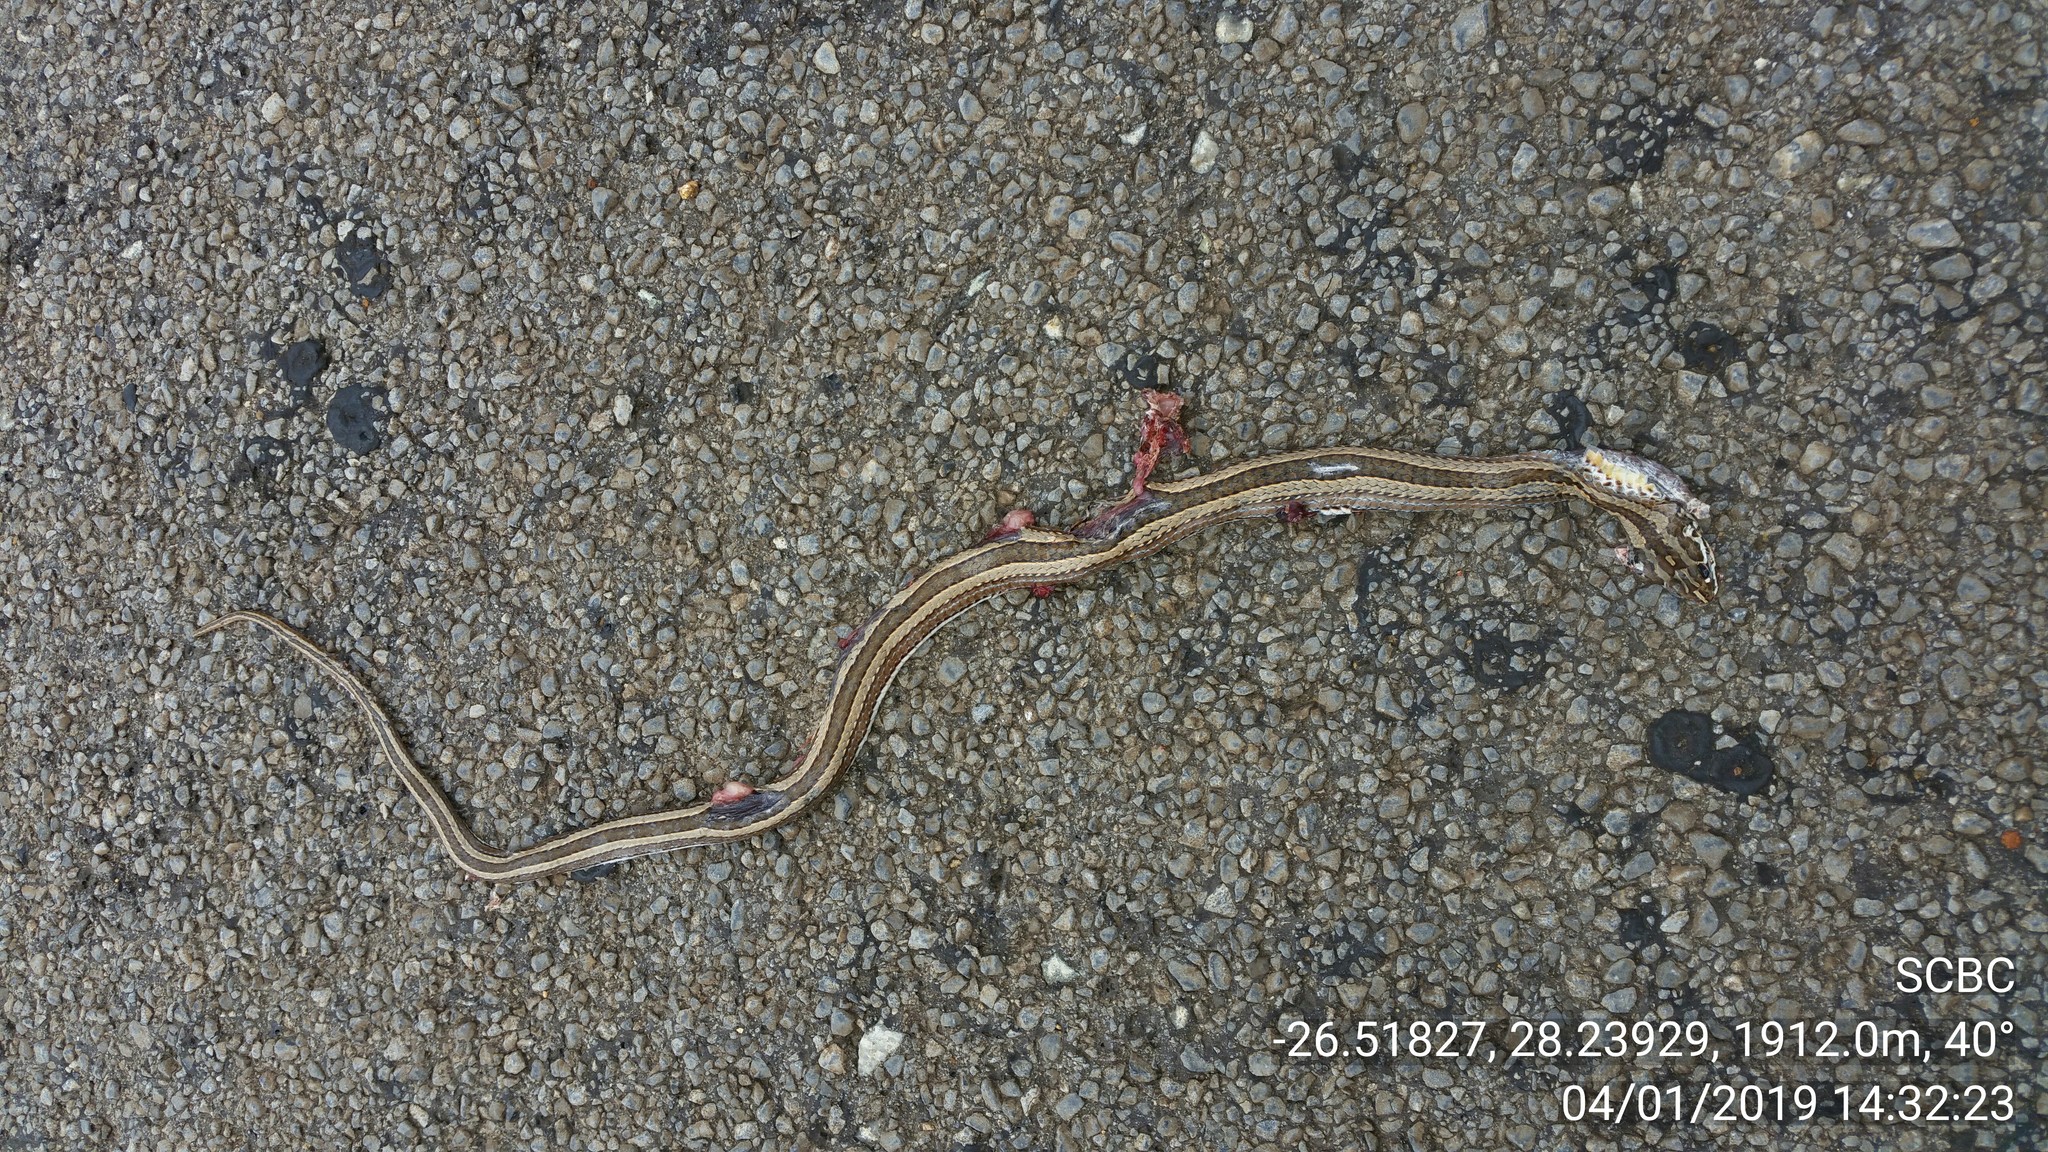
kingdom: Animalia
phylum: Chordata
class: Squamata
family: Psammophiidae
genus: Psammophis
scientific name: Psammophis crucifer
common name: Cross-marked grass snake
